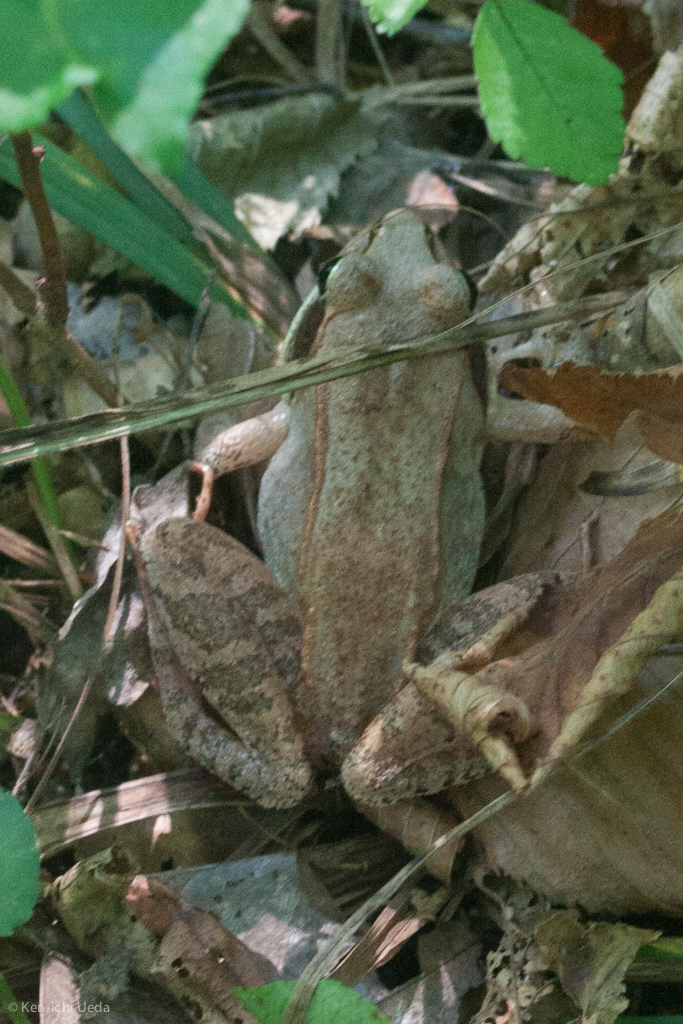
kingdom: Animalia
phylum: Chordata
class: Amphibia
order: Anura
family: Ranidae
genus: Lithobates
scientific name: Lithobates sylvaticus
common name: Wood frog
